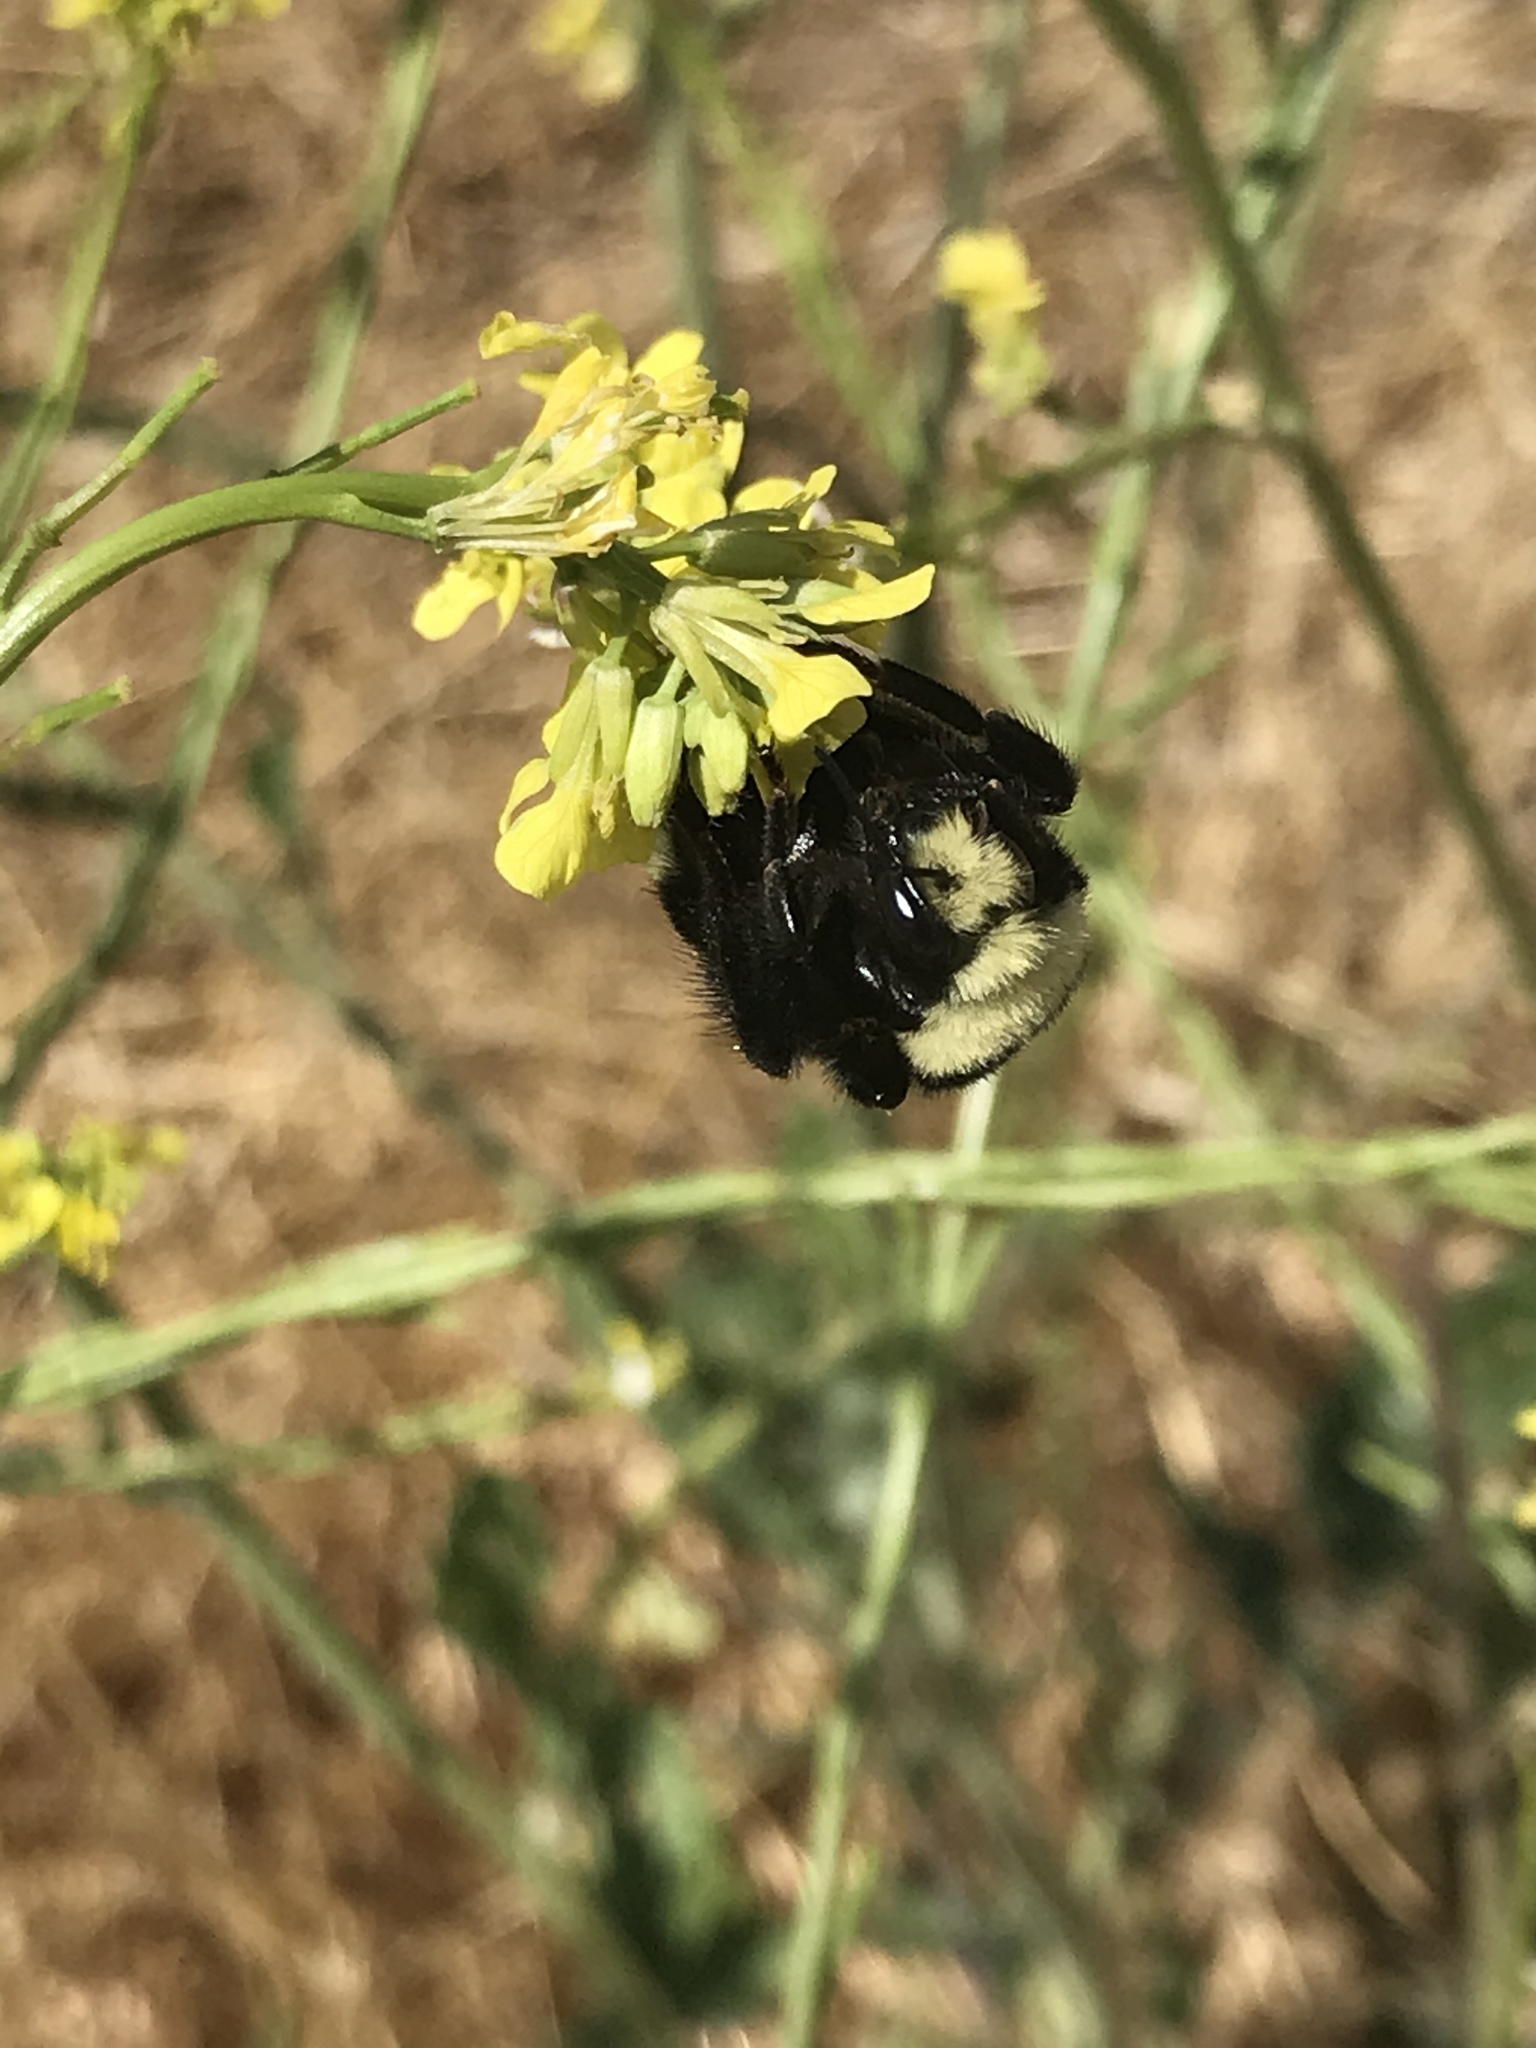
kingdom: Animalia
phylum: Arthropoda
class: Insecta
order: Hymenoptera
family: Apidae
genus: Bombus
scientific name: Bombus vosnesenskii
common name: Vosnesensky bumble bee
